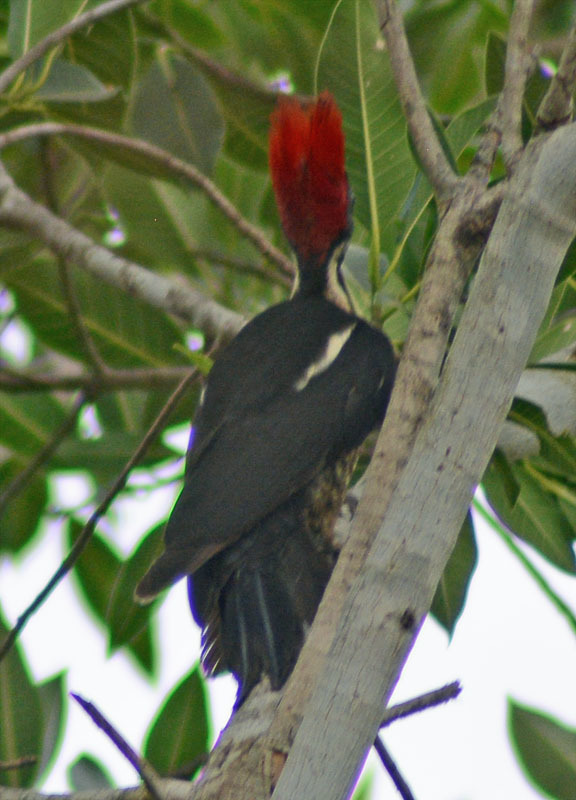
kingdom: Animalia
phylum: Chordata
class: Aves
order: Piciformes
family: Picidae
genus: Dryocopus
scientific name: Dryocopus lineatus
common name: Lineated woodpecker
